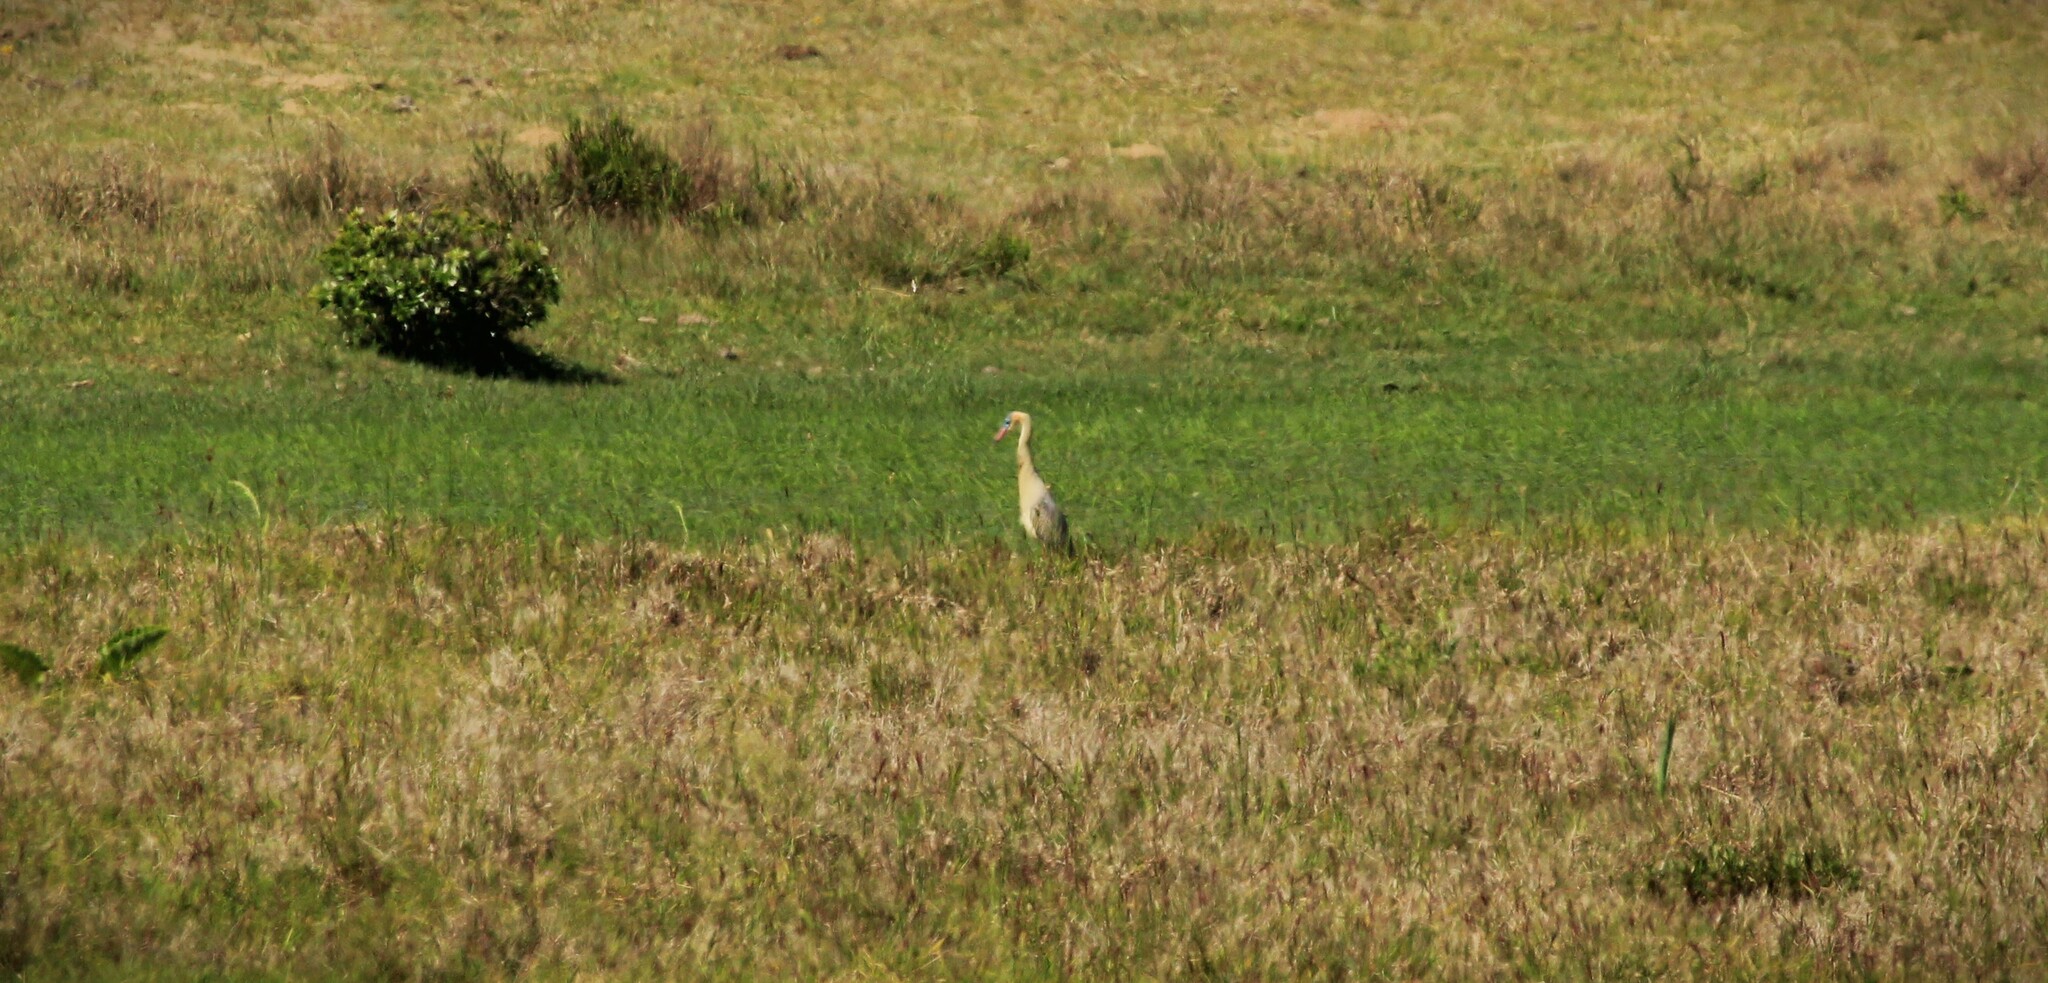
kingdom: Animalia
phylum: Chordata
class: Aves
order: Pelecaniformes
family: Ardeidae
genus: Syrigma
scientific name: Syrigma sibilatrix
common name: Whistling heron
